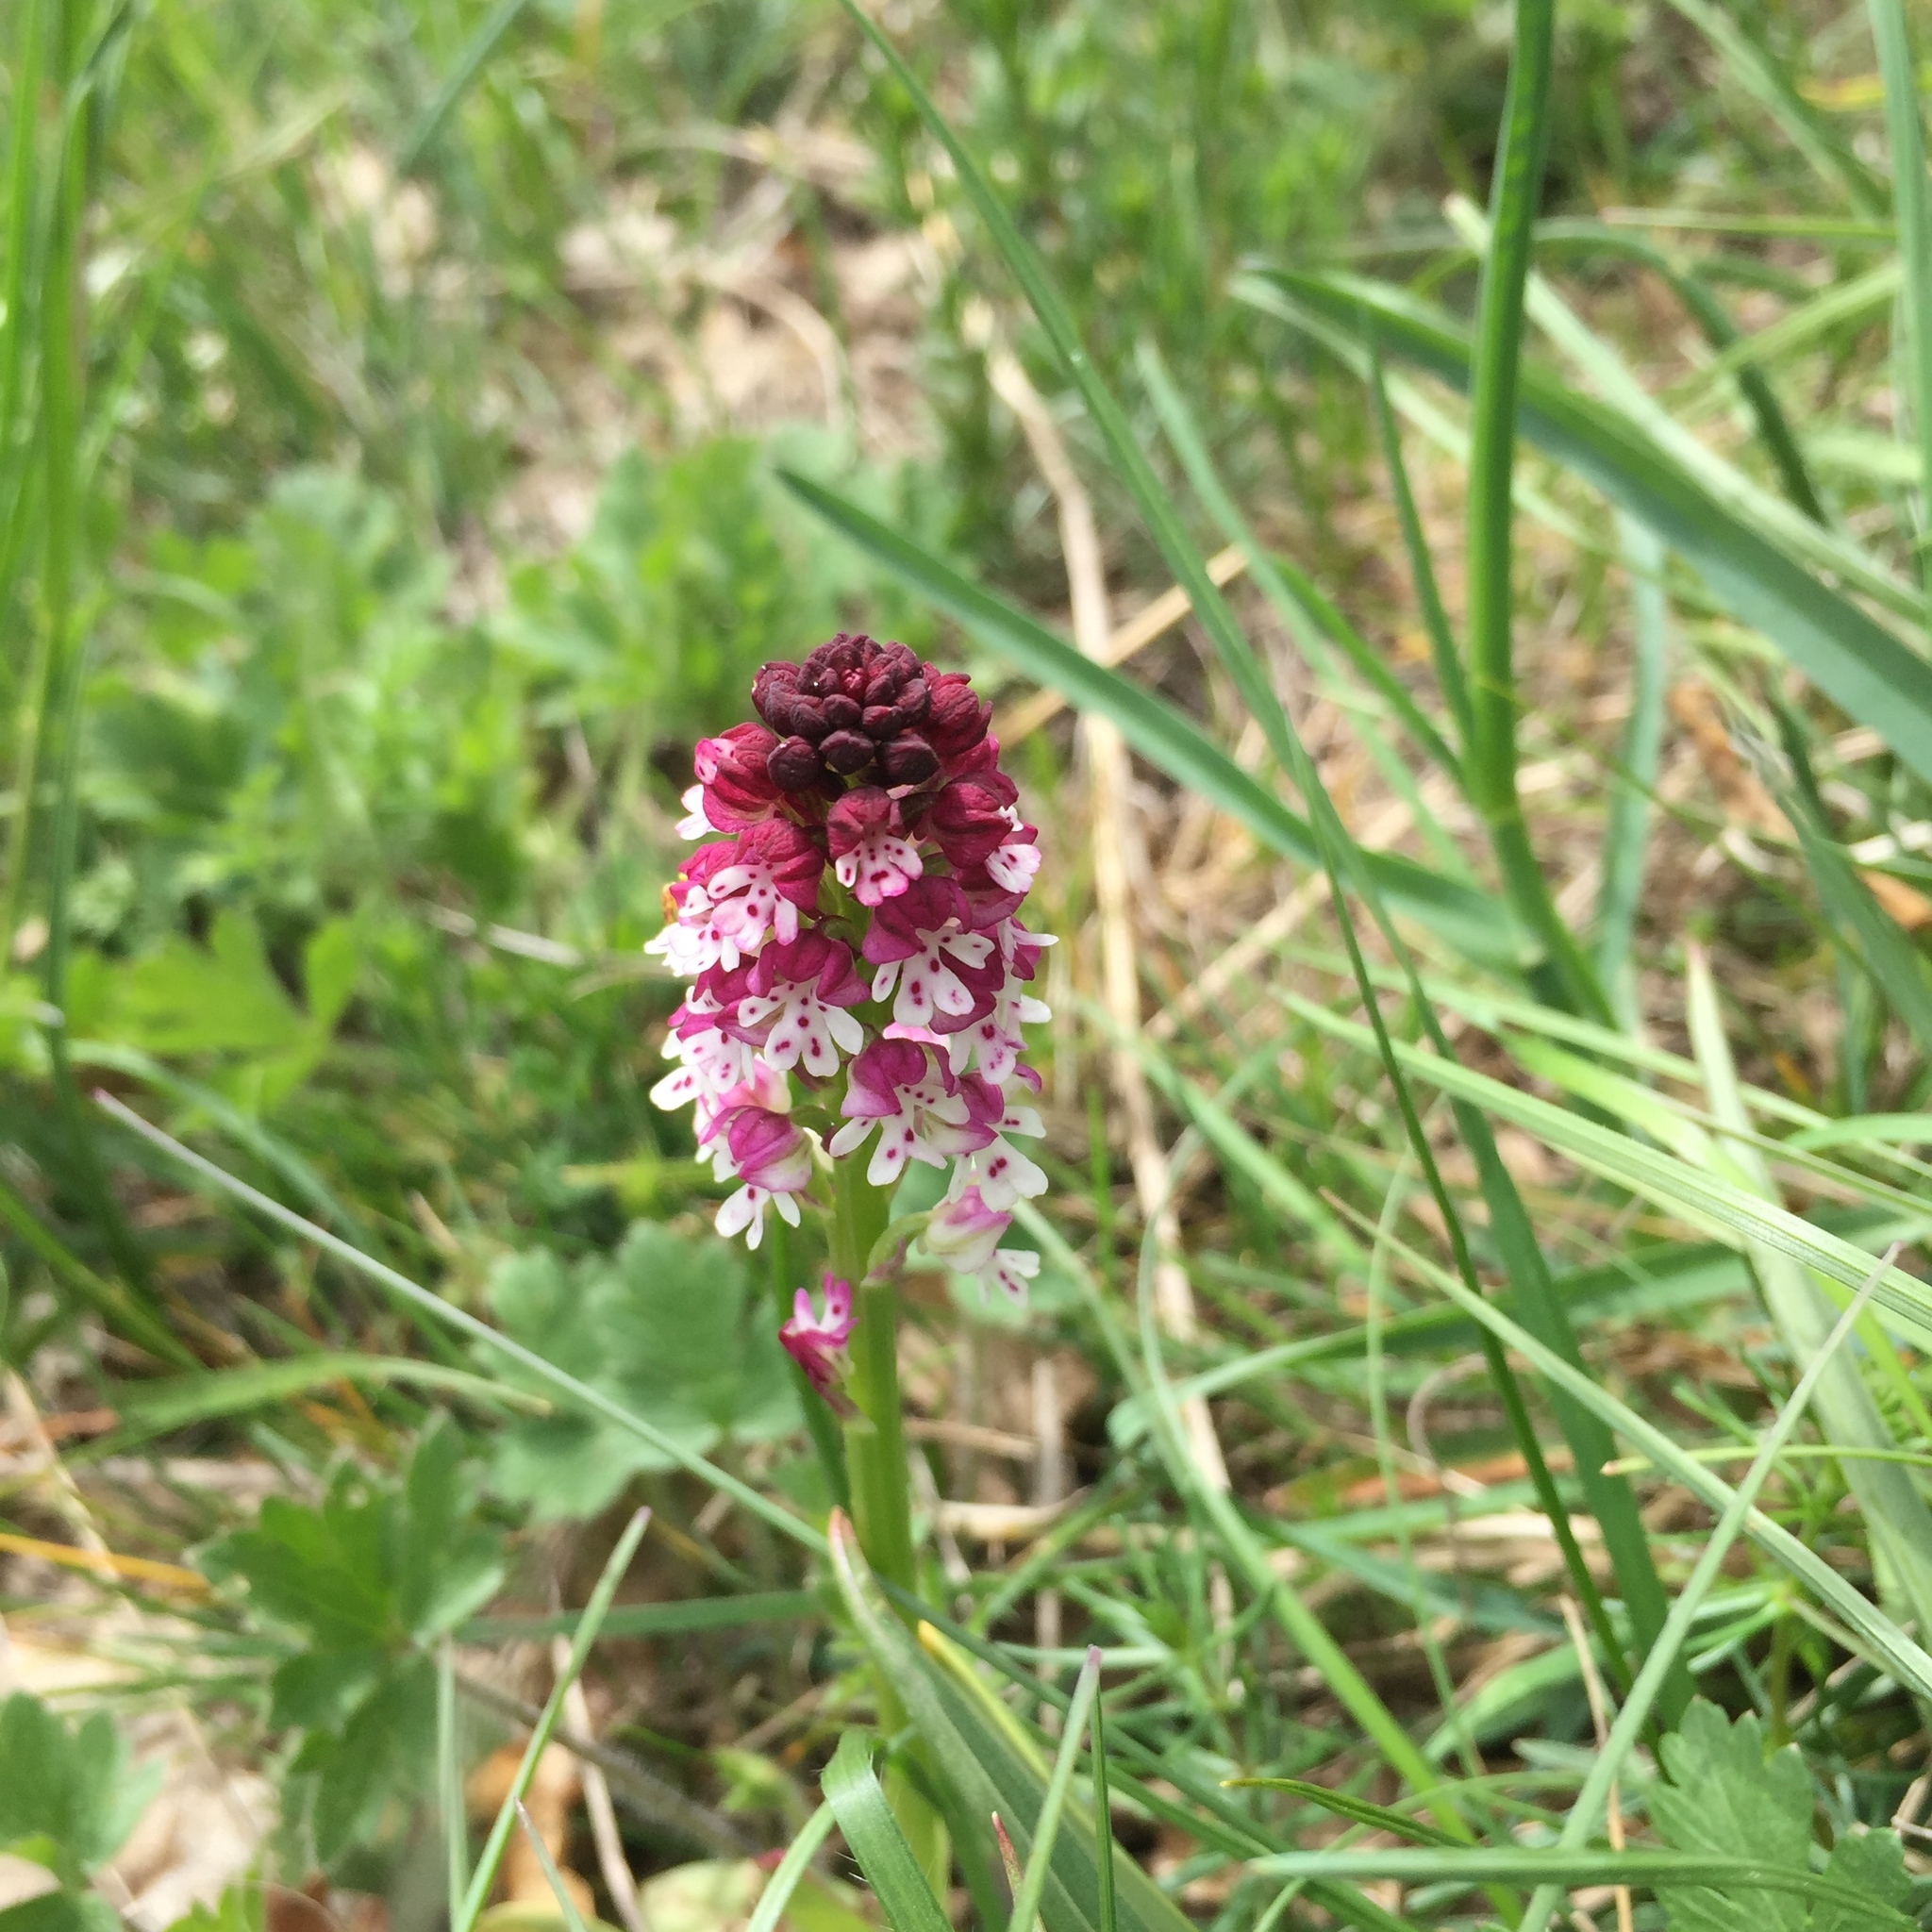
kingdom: Plantae
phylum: Tracheophyta
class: Liliopsida
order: Asparagales
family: Orchidaceae
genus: Neotinea
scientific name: Neotinea ustulata
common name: Burnt orchid
